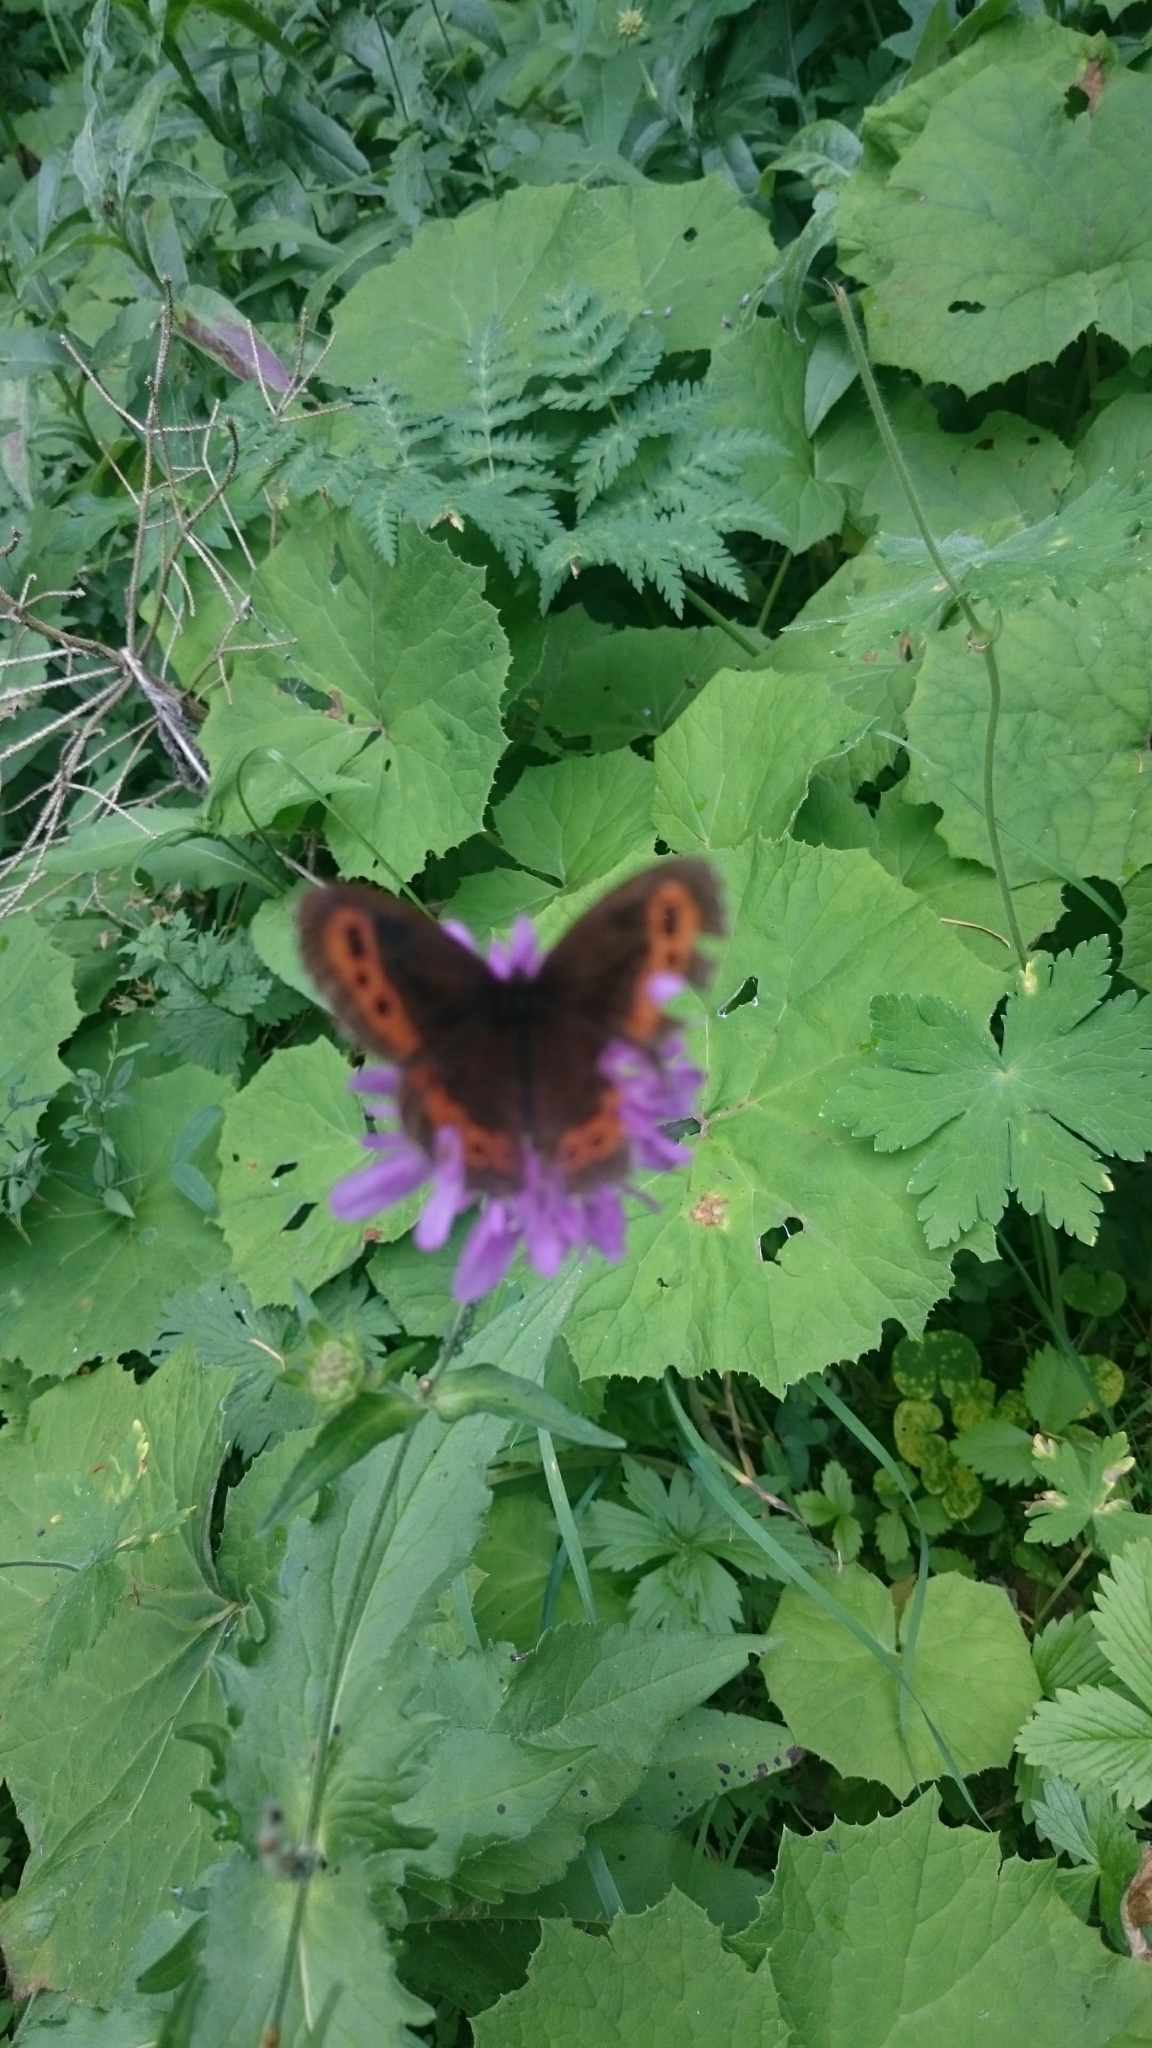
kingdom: Animalia
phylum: Arthropoda
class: Insecta
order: Lepidoptera
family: Nymphalidae
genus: Erebia
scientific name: Erebia ligea
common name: Arran brown
